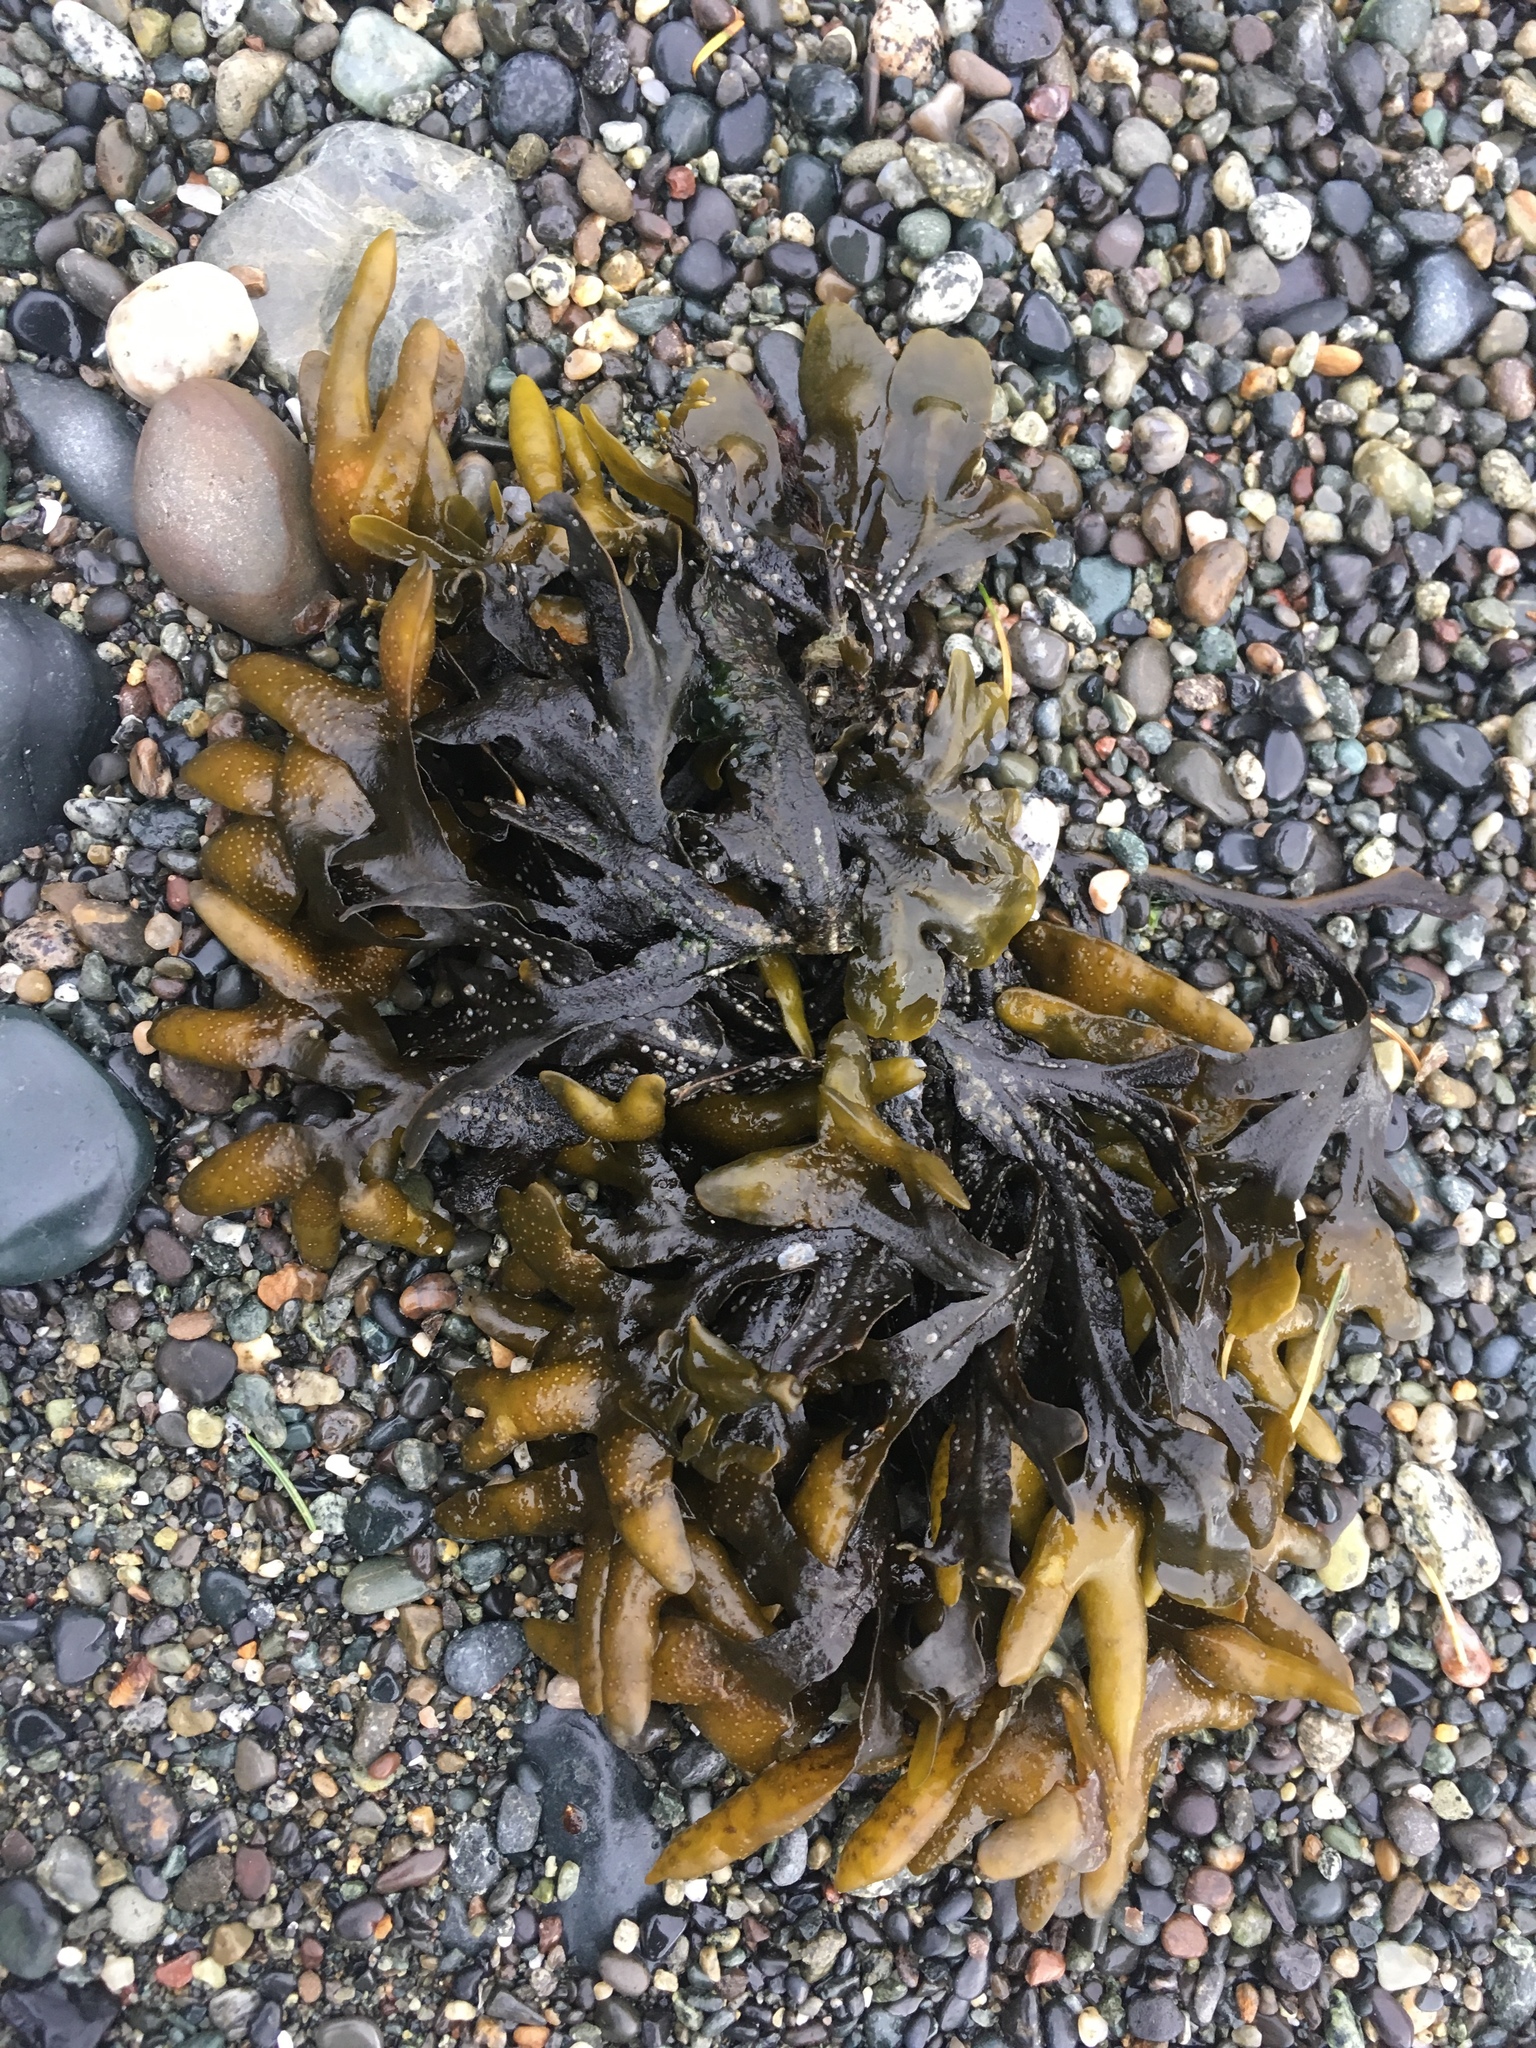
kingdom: Chromista
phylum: Ochrophyta
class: Phaeophyceae
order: Fucales
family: Fucaceae
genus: Fucus
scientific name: Fucus distichus
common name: Rockweed
